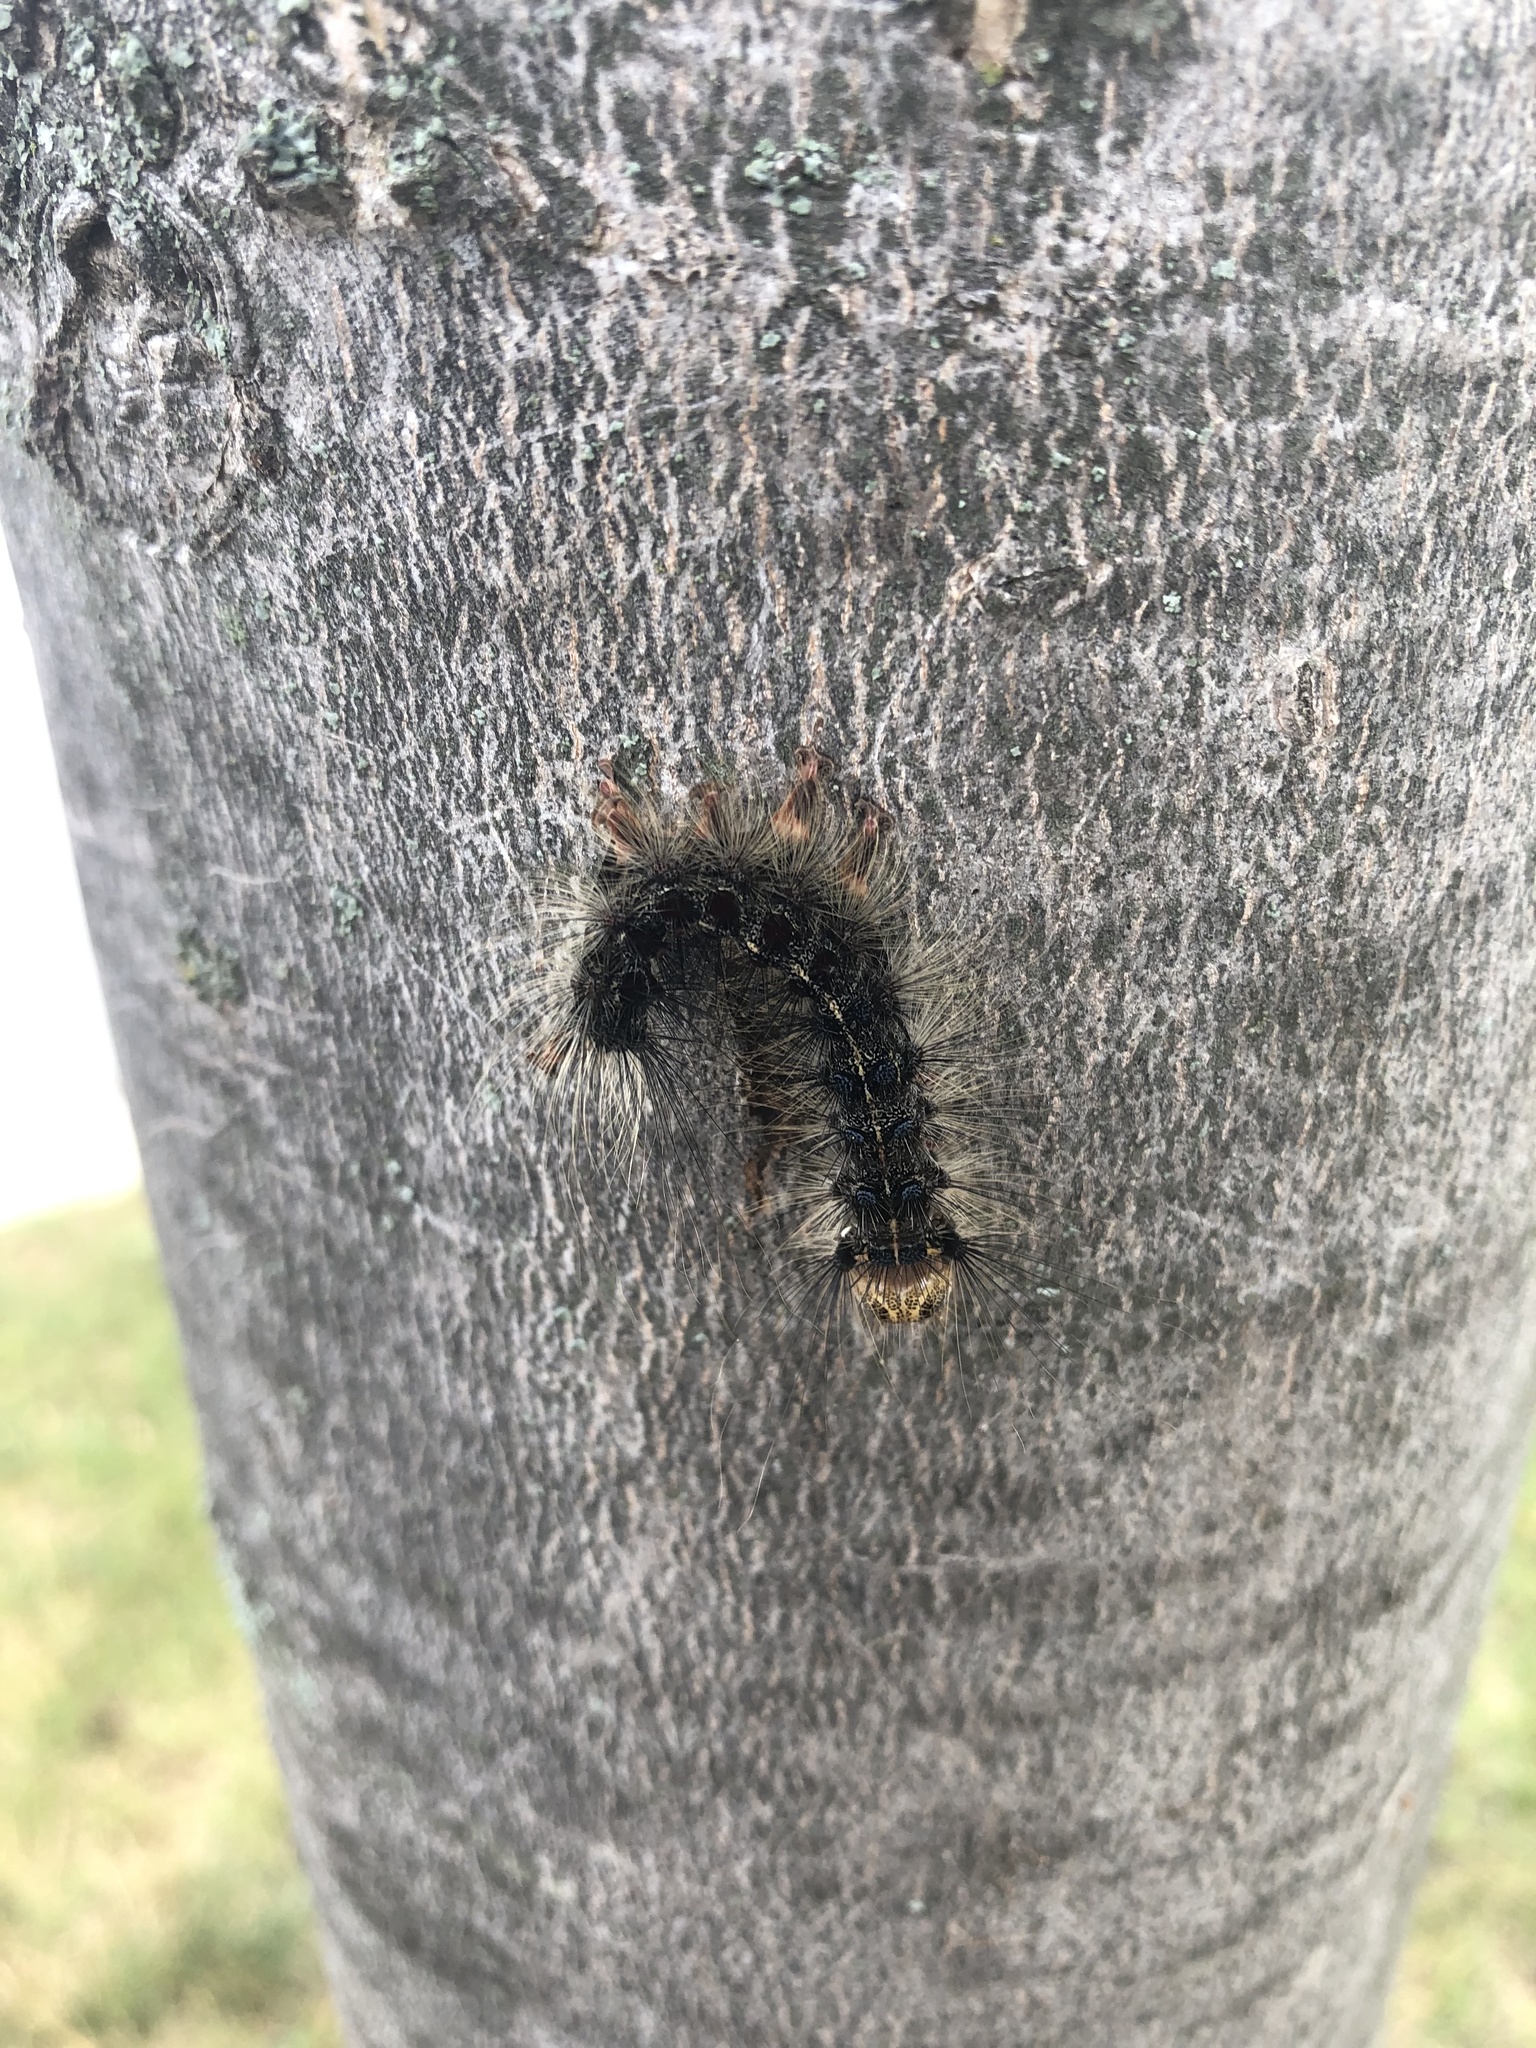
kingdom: Animalia
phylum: Arthropoda
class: Insecta
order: Lepidoptera
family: Erebidae
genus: Lymantria
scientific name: Lymantria dispar
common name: Gypsy moth
